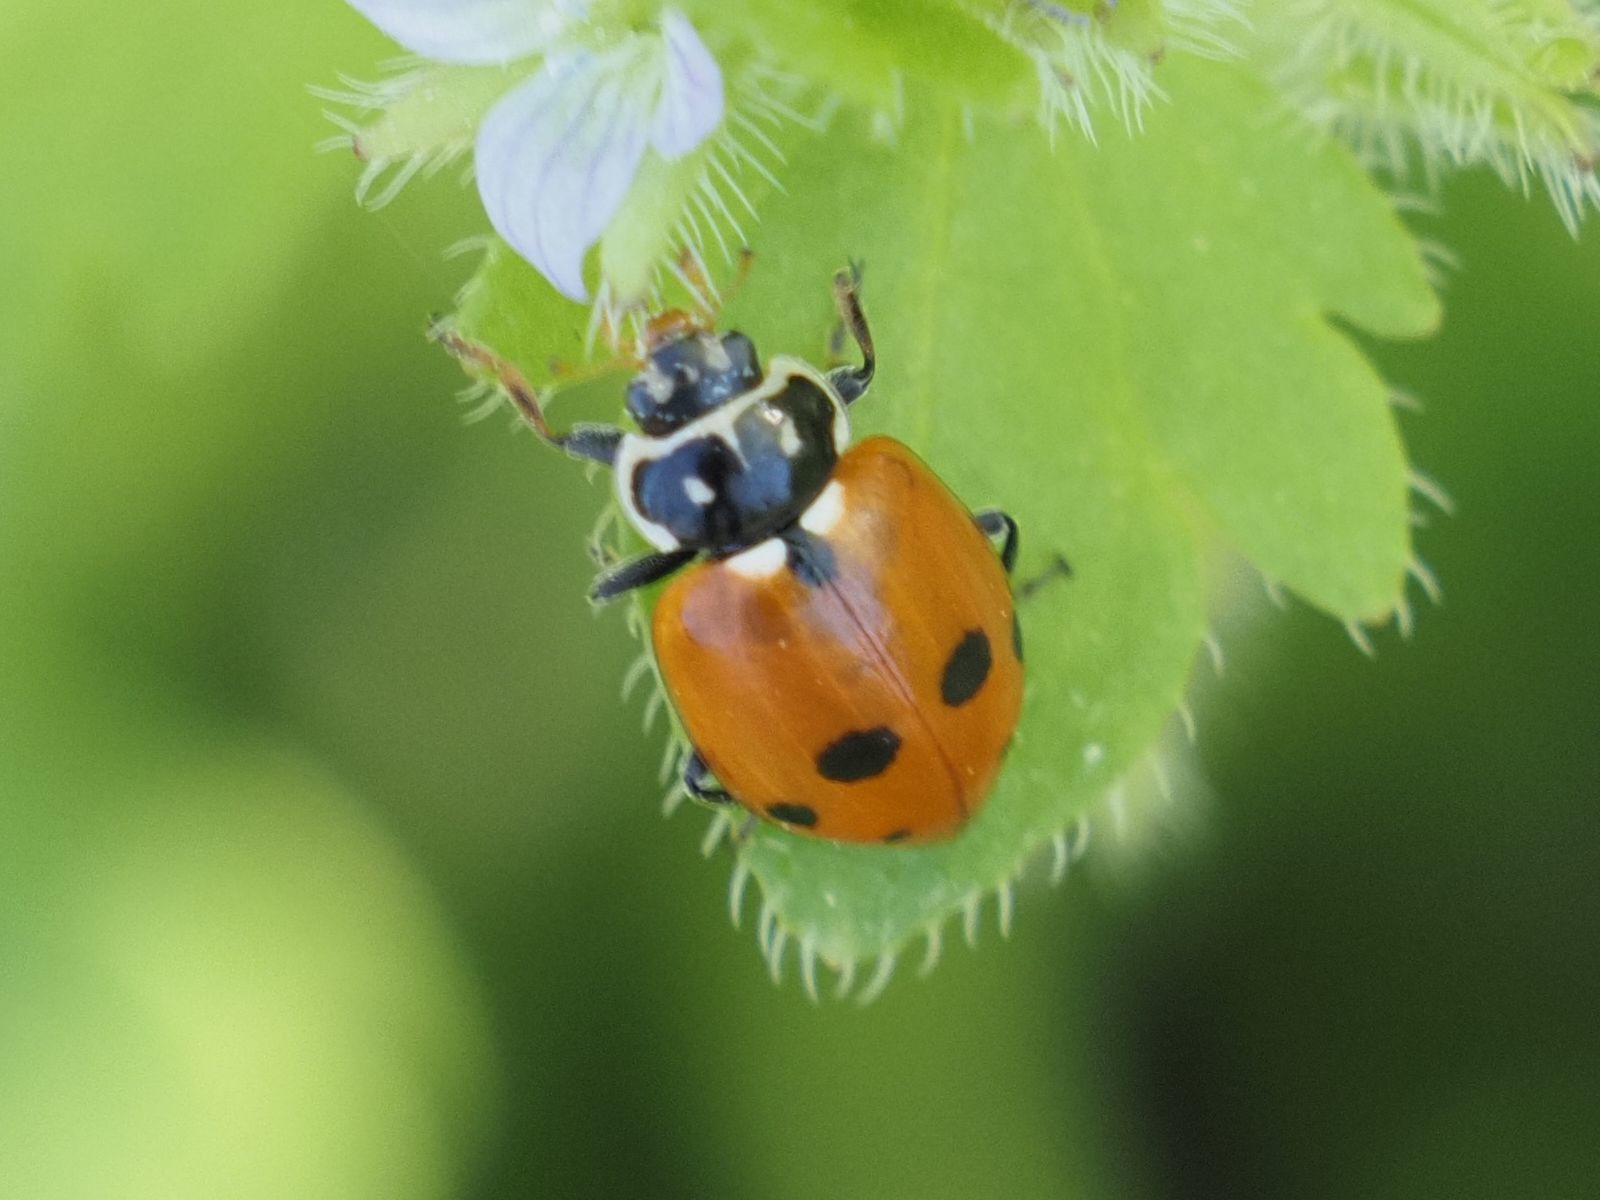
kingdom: Animalia
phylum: Arthropoda
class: Insecta
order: Coleoptera
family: Coccinellidae
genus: Hippodamia
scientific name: Hippodamia variegata
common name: Ladybird beetle
